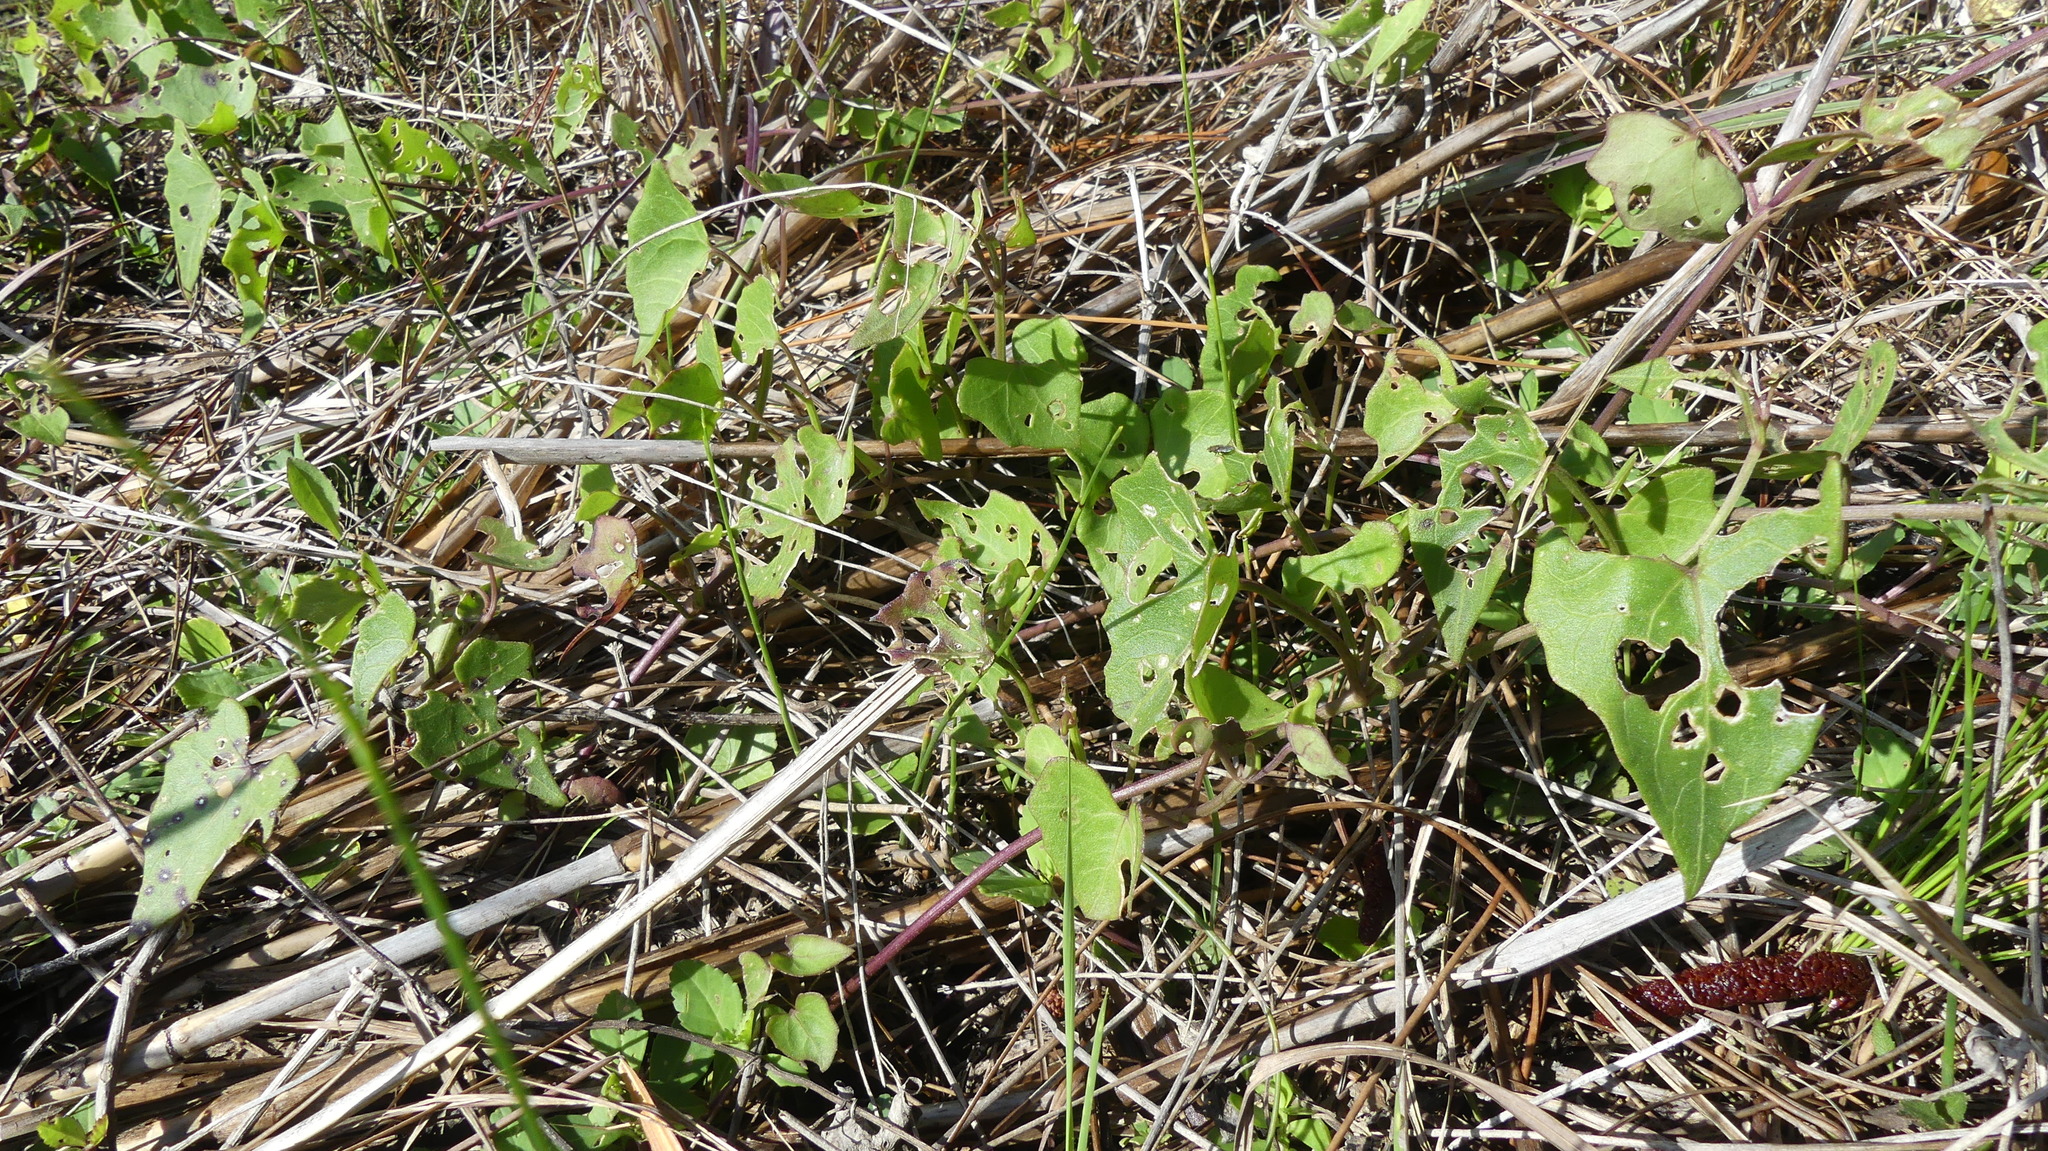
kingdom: Plantae
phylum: Tracheophyta
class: Magnoliopsida
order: Asterales
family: Asteraceae
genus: Mikania
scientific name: Mikania scandens
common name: Climbing hempvine
